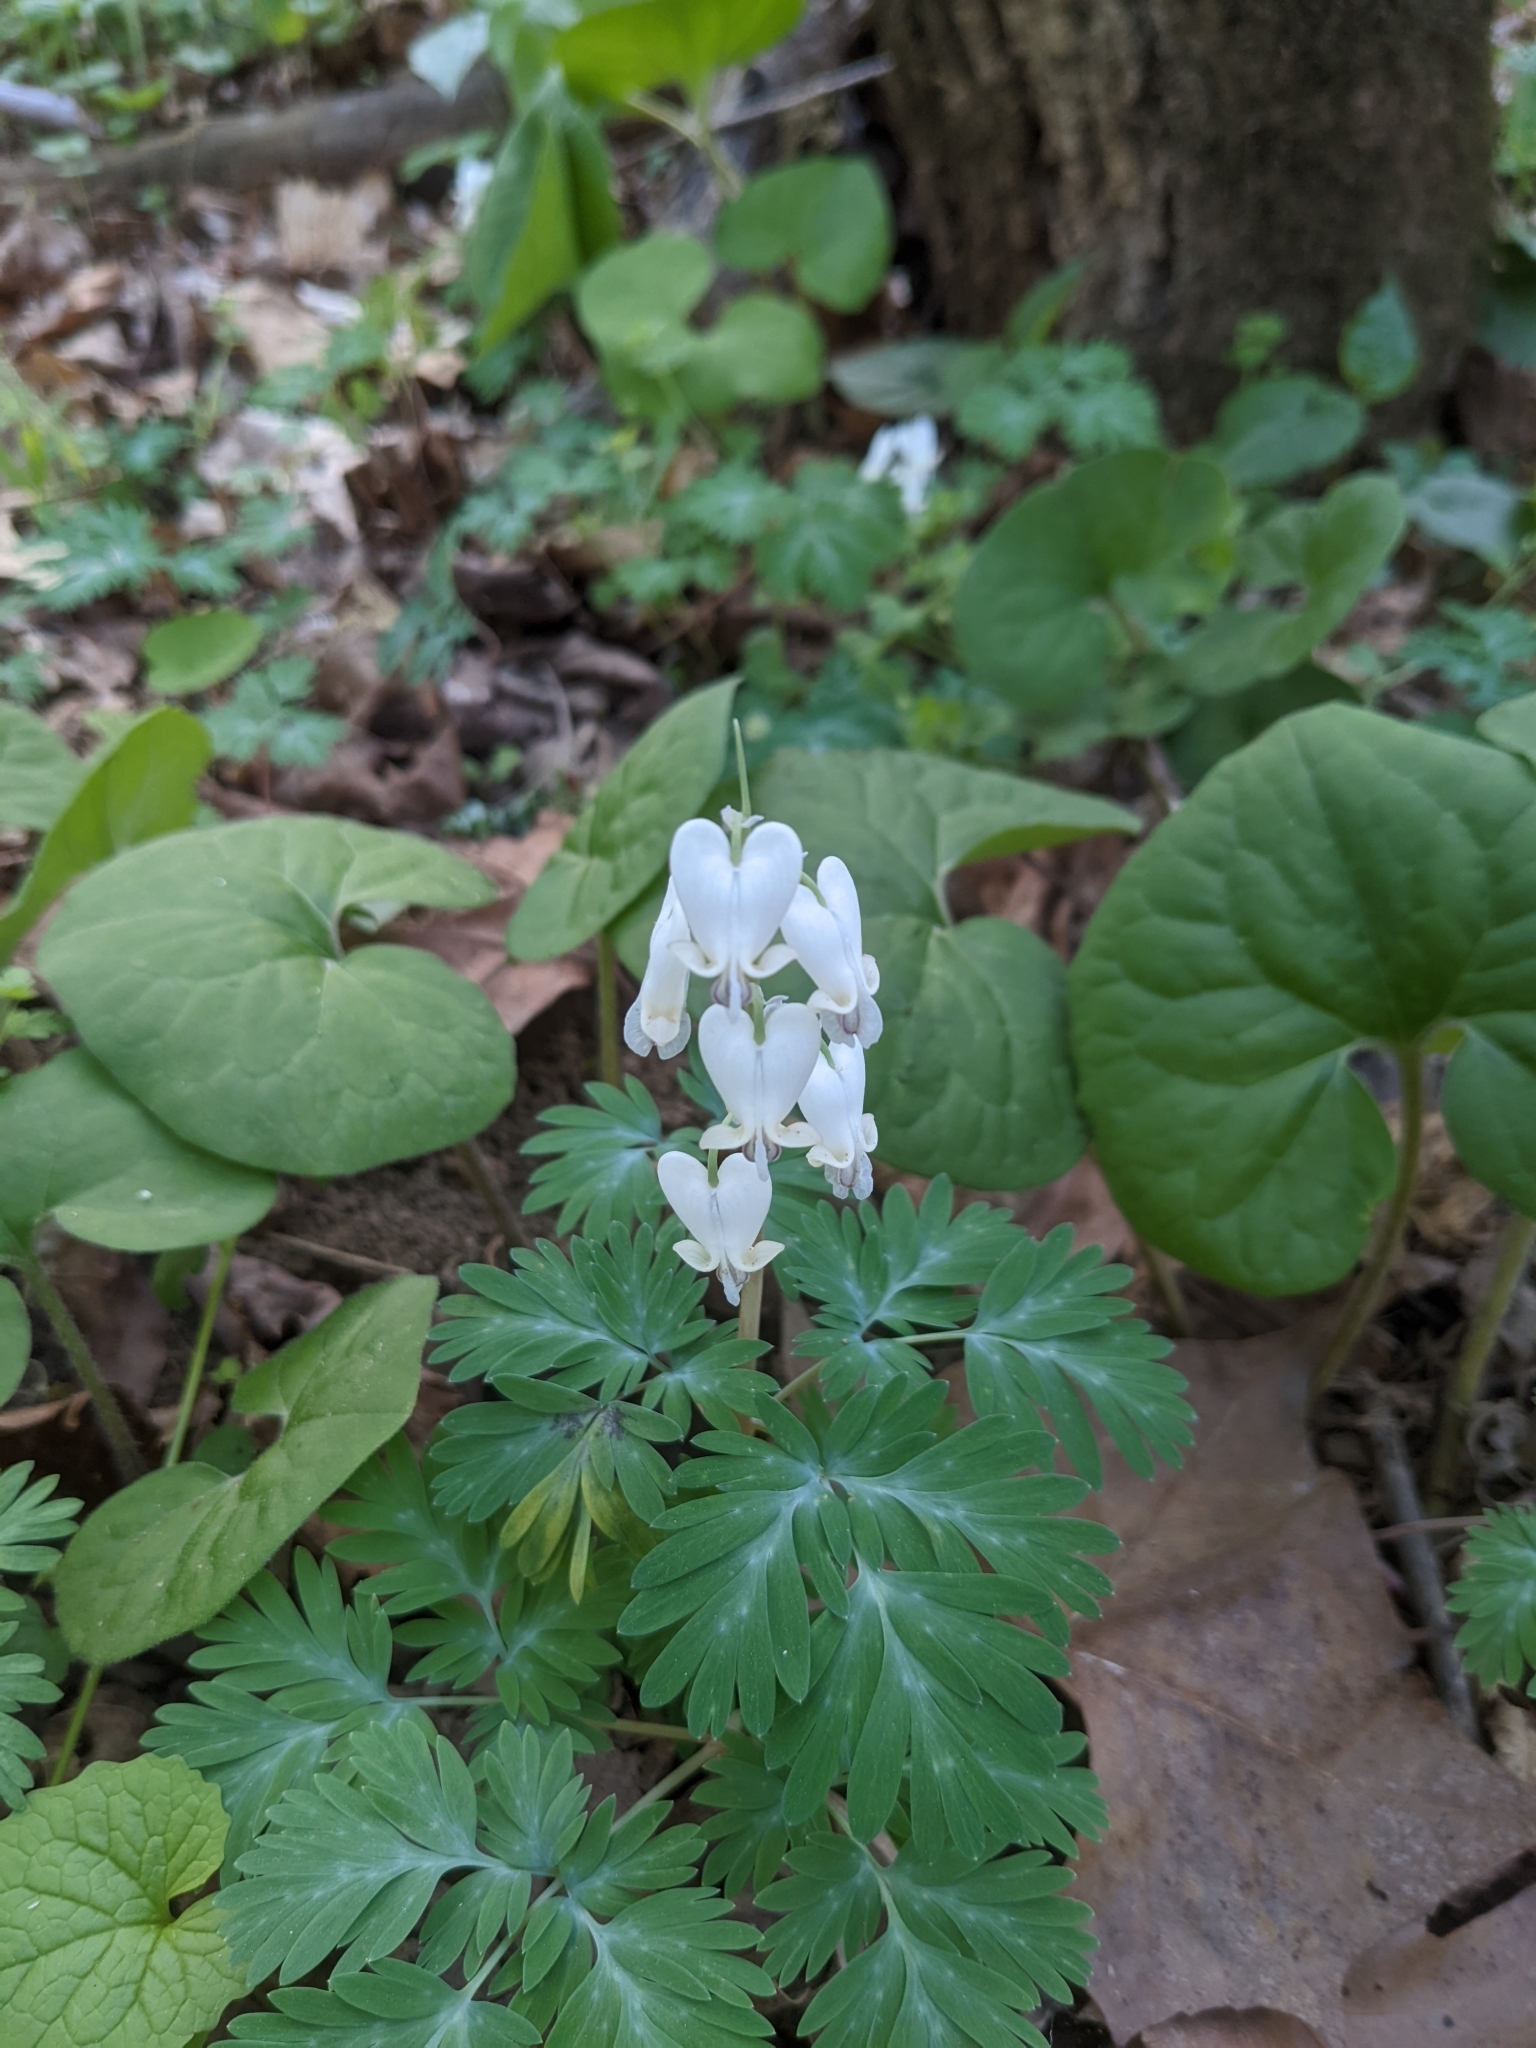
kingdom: Plantae
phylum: Tracheophyta
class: Magnoliopsida
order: Ranunculales
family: Papaveraceae
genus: Dicentra
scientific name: Dicentra canadensis
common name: Squirrel-corn
